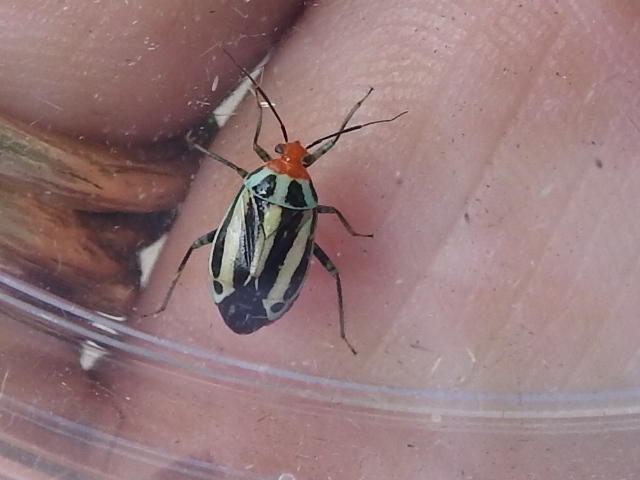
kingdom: Animalia
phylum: Arthropoda
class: Insecta
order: Hemiptera
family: Miridae
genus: Poecilocapsus
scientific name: Poecilocapsus lineatus
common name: Four-lined plant bug
